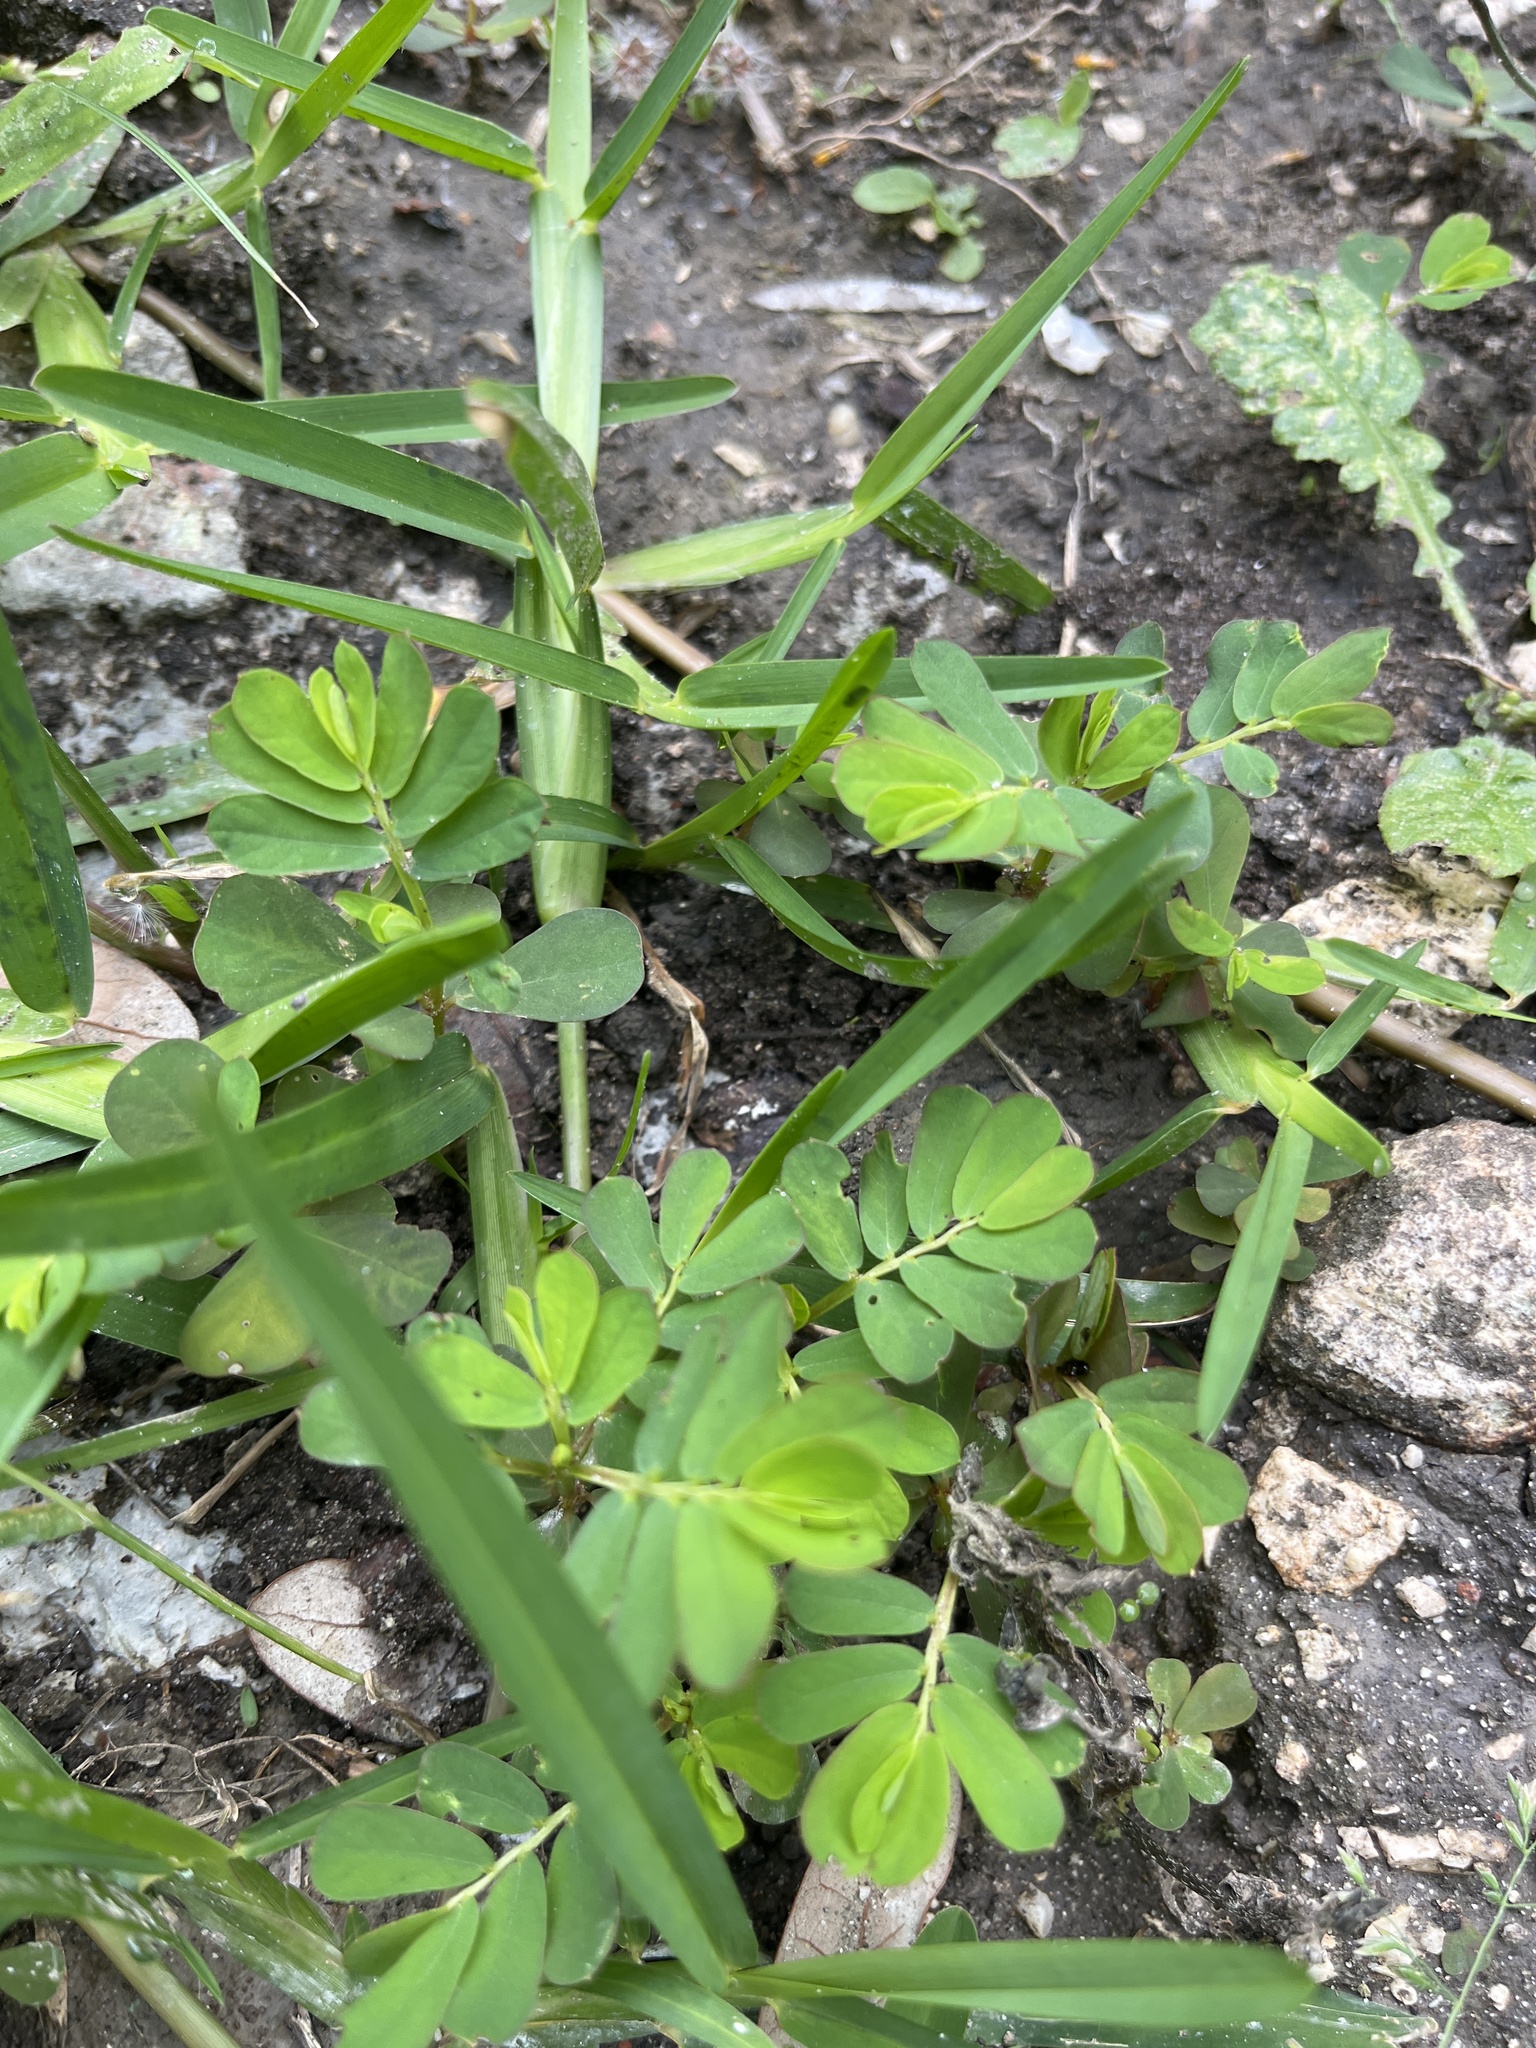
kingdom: Plantae
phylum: Tracheophyta
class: Magnoliopsida
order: Malpighiales
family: Phyllanthaceae
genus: Phyllanthus
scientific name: Phyllanthus urinaria
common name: Chamber bitter
